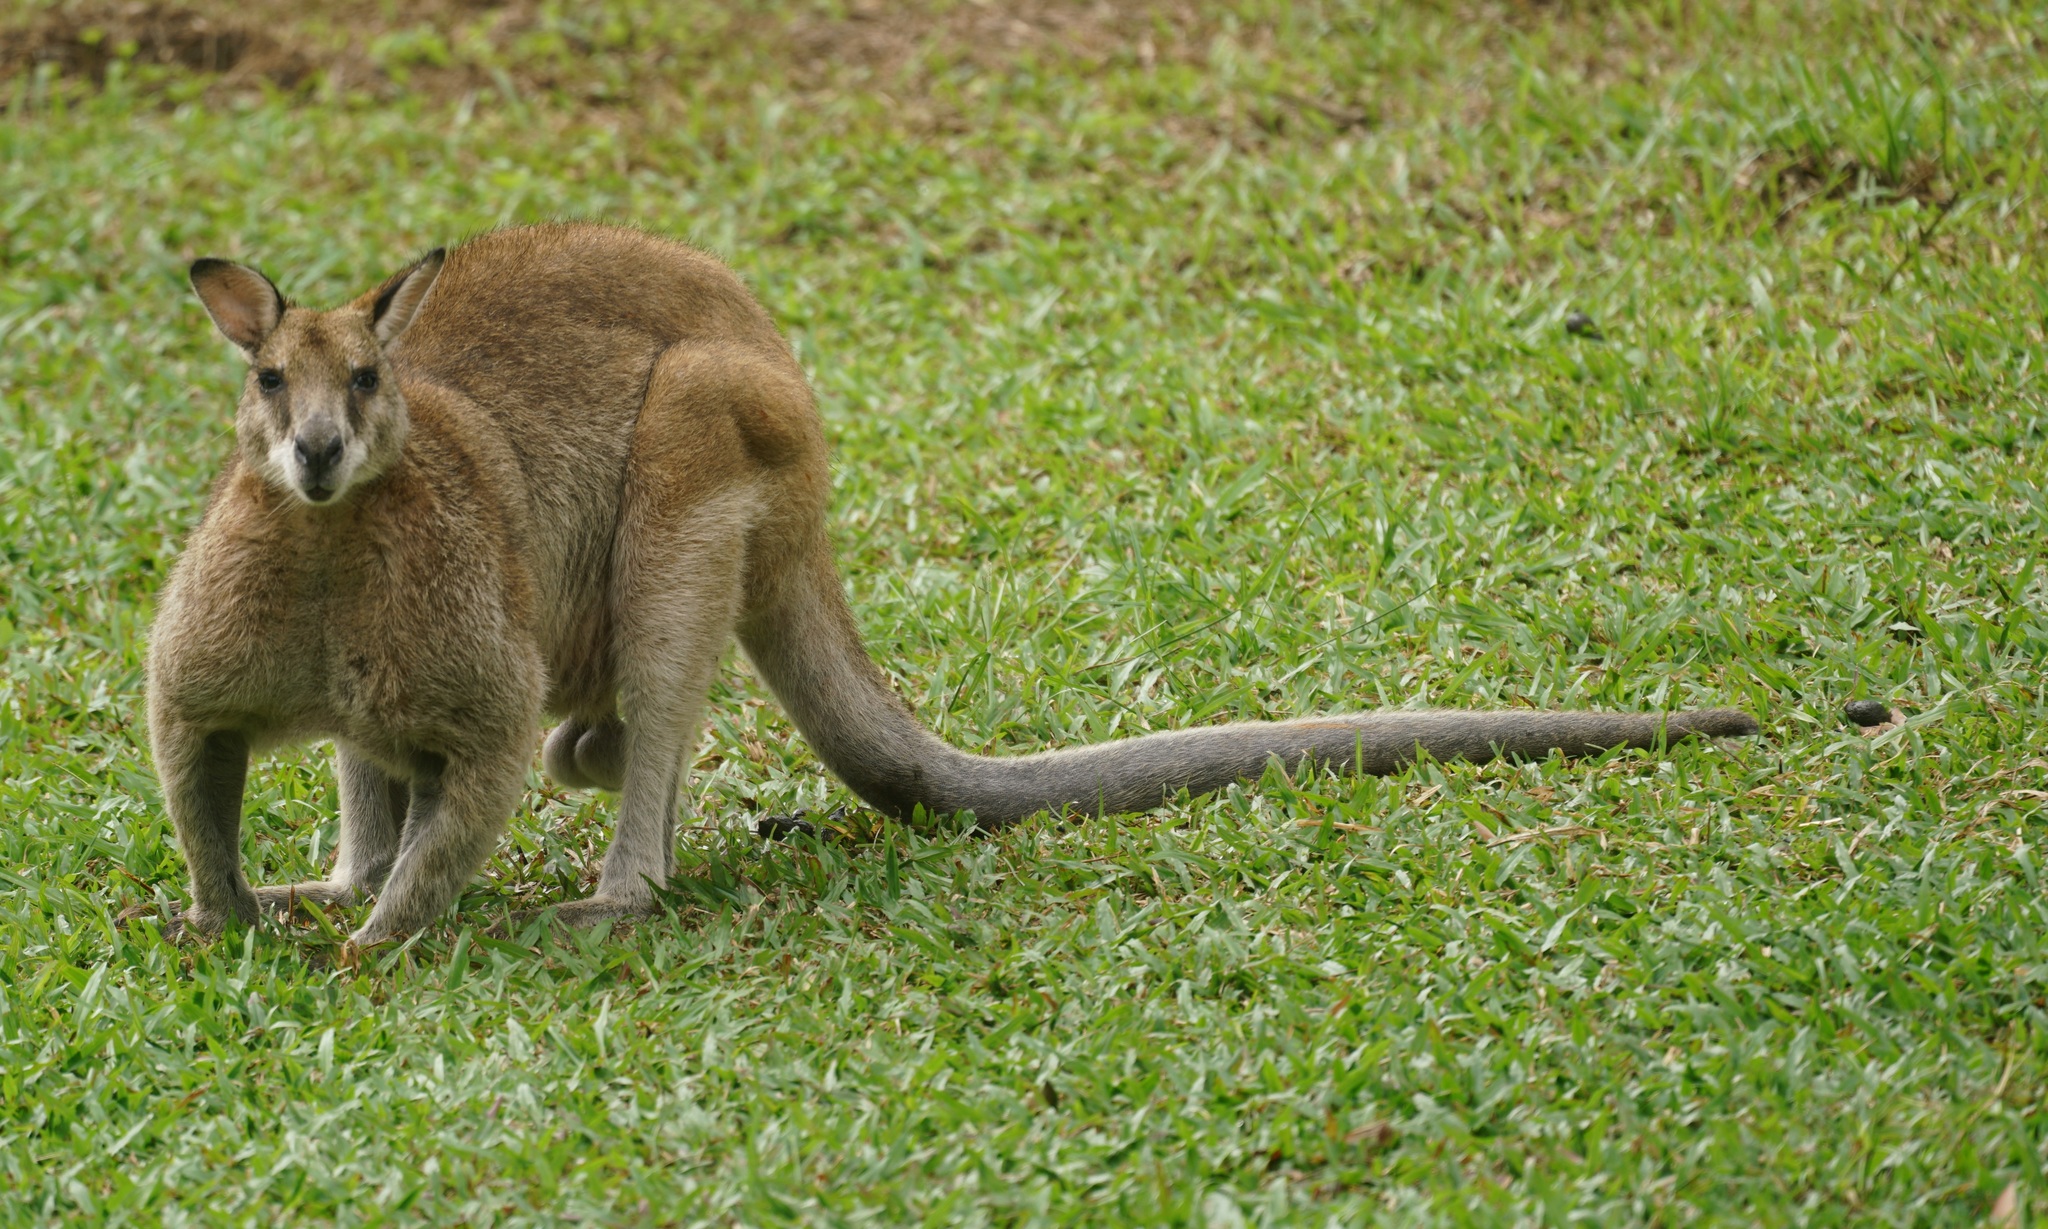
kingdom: Animalia
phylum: Chordata
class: Mammalia
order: Diprotodontia
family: Macropodidae
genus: Macropus
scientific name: Macropus agilis
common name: Agile wallaby
